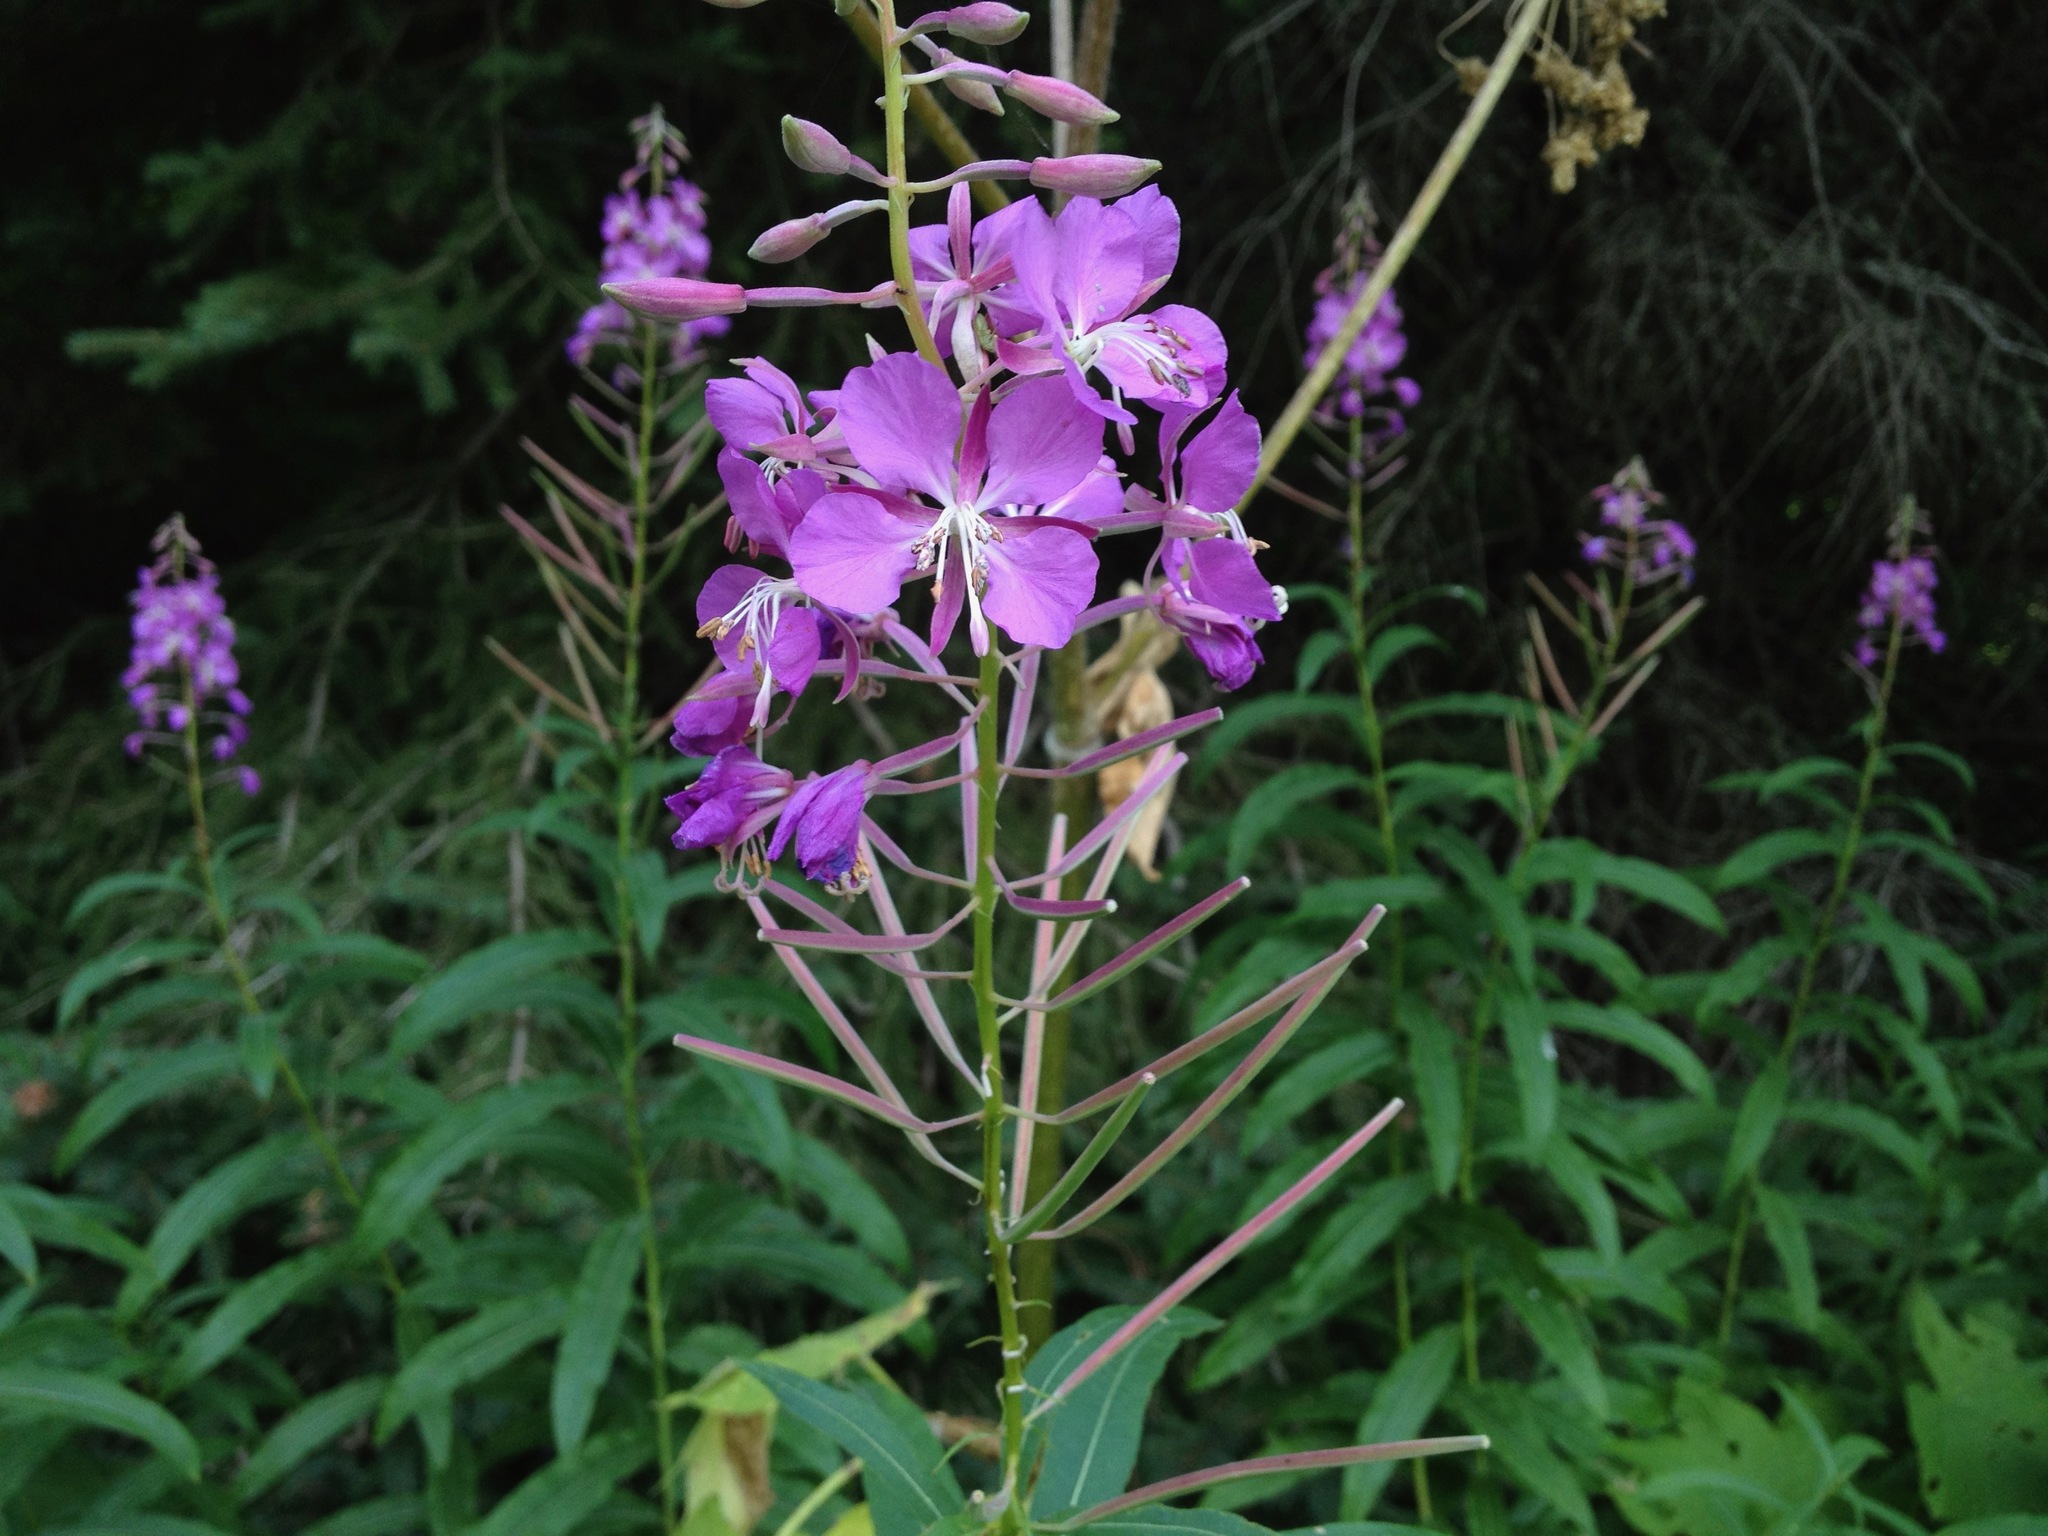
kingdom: Plantae
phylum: Tracheophyta
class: Magnoliopsida
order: Myrtales
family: Onagraceae
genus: Chamaenerion
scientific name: Chamaenerion angustifolium
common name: Fireweed
